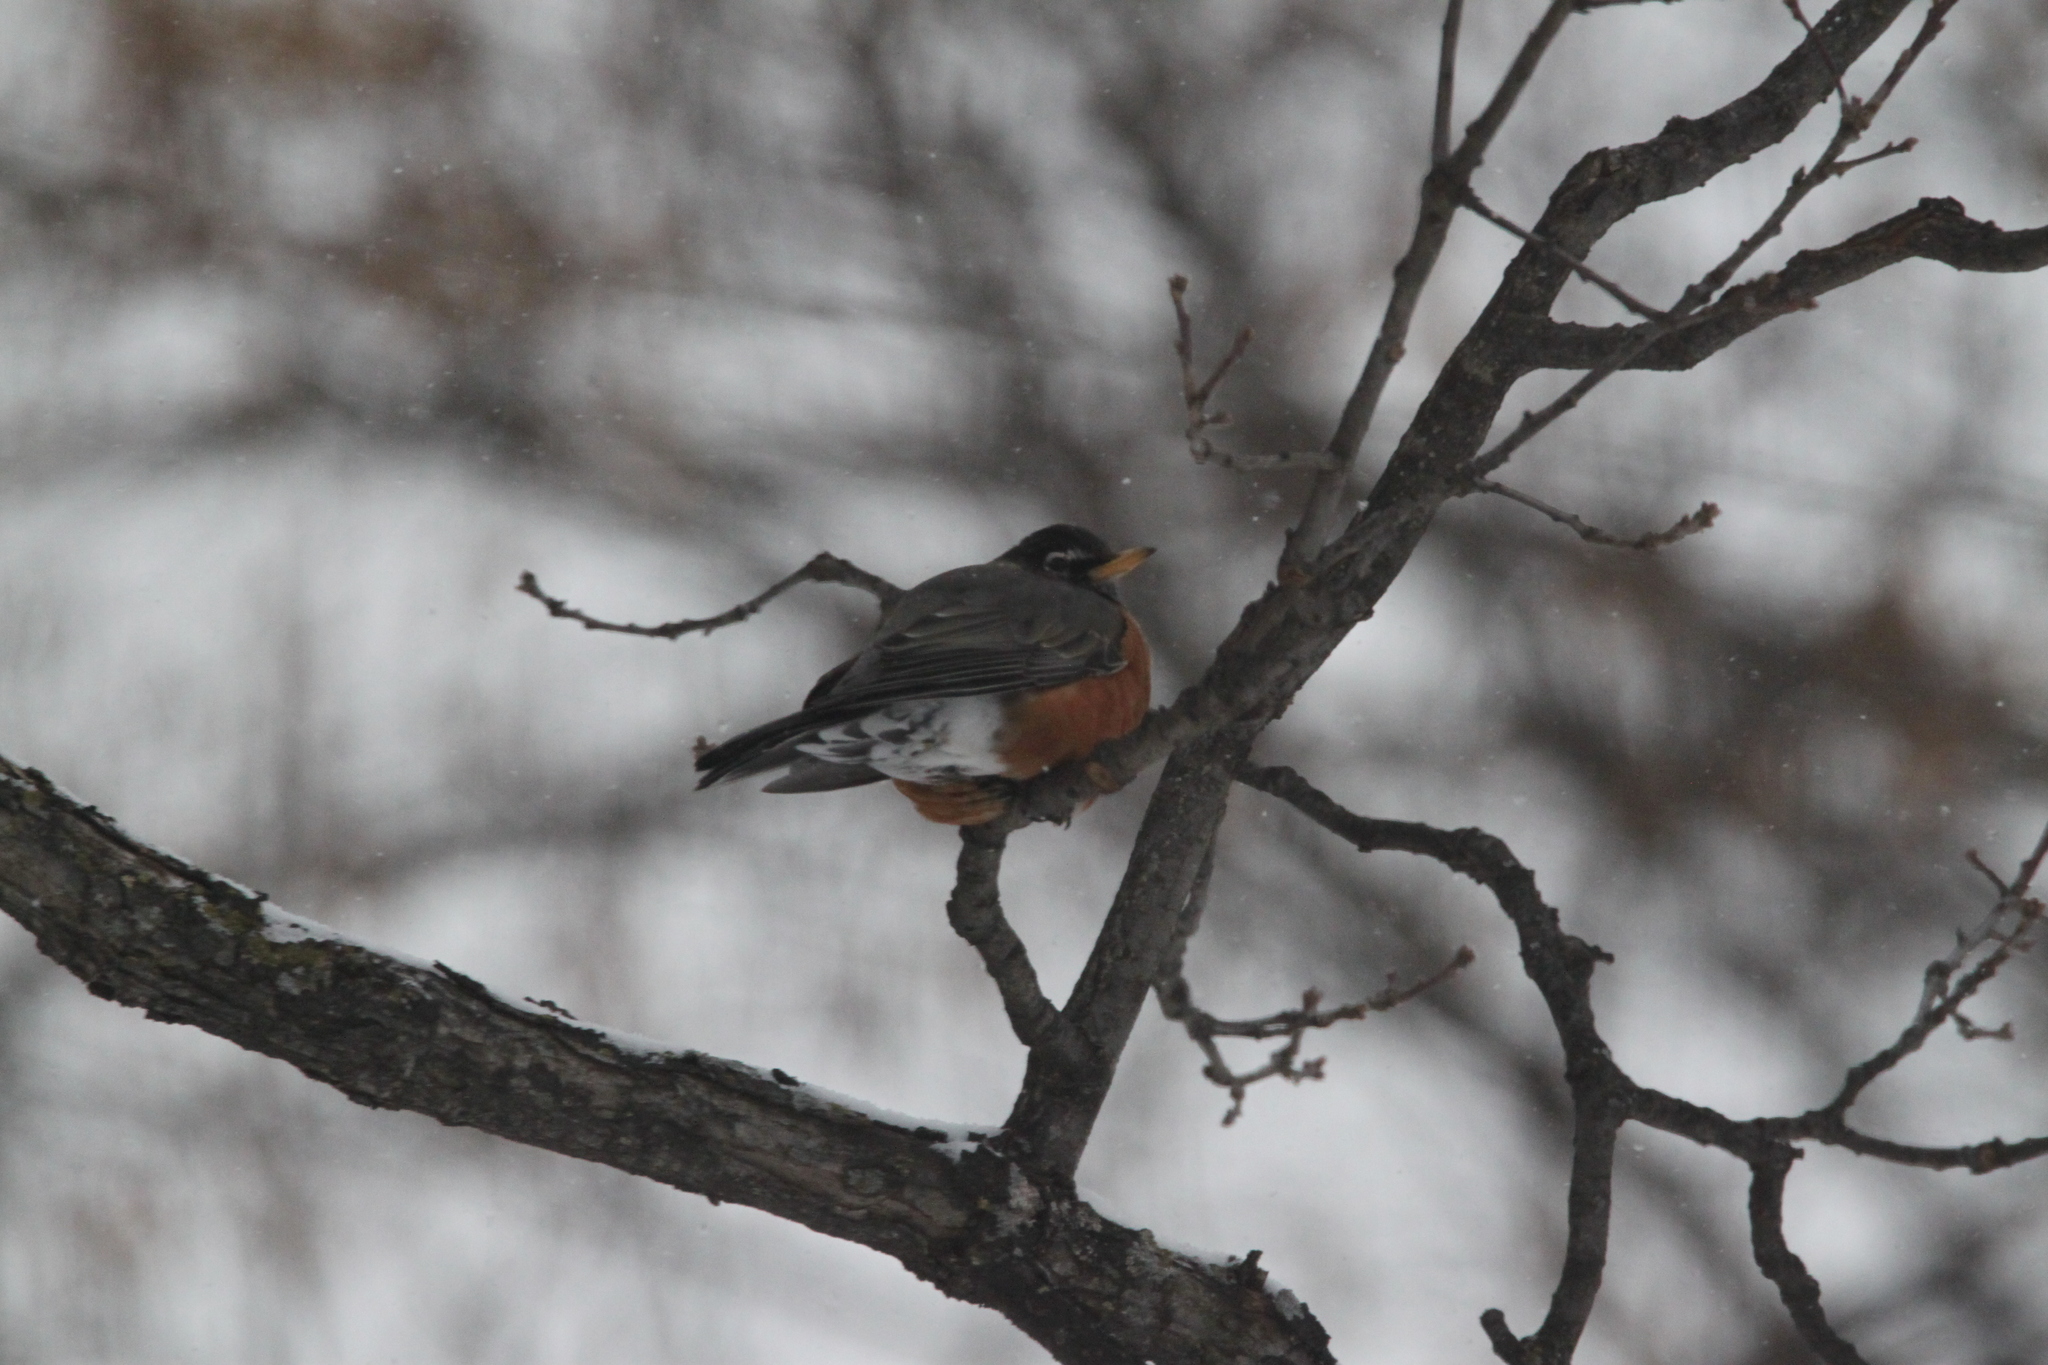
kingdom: Animalia
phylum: Chordata
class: Aves
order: Passeriformes
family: Turdidae
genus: Turdus
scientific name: Turdus migratorius
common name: American robin
